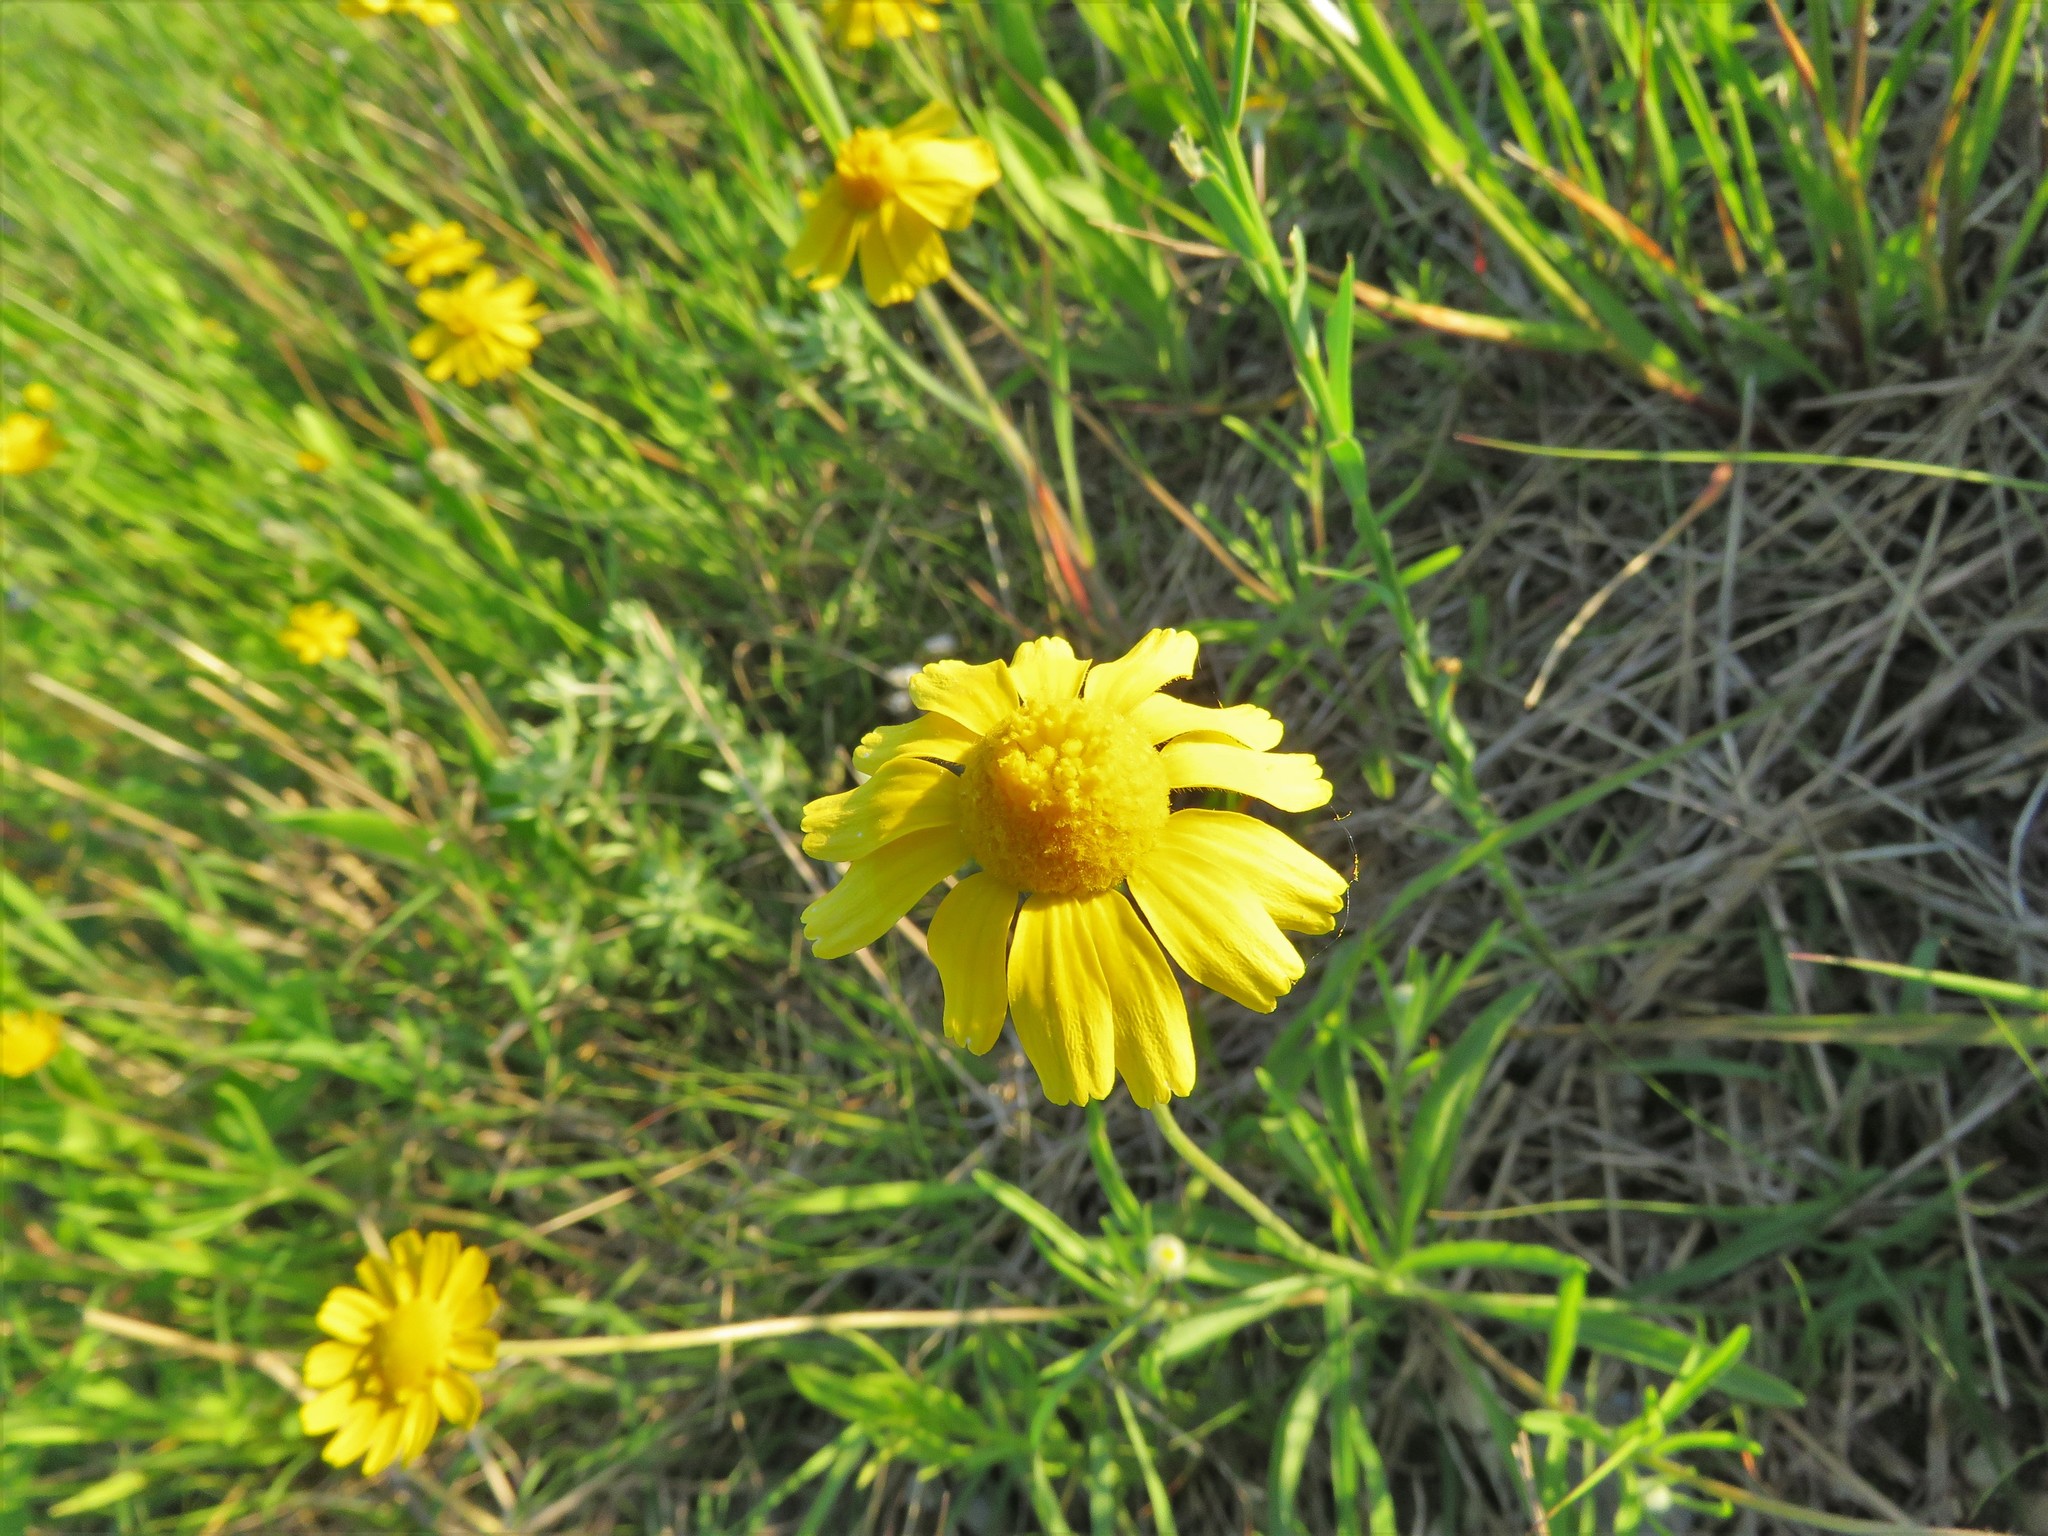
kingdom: Plantae
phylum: Tracheophyta
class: Magnoliopsida
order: Asterales
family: Asteraceae
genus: Tetraneuris
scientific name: Tetraneuris scaposa
